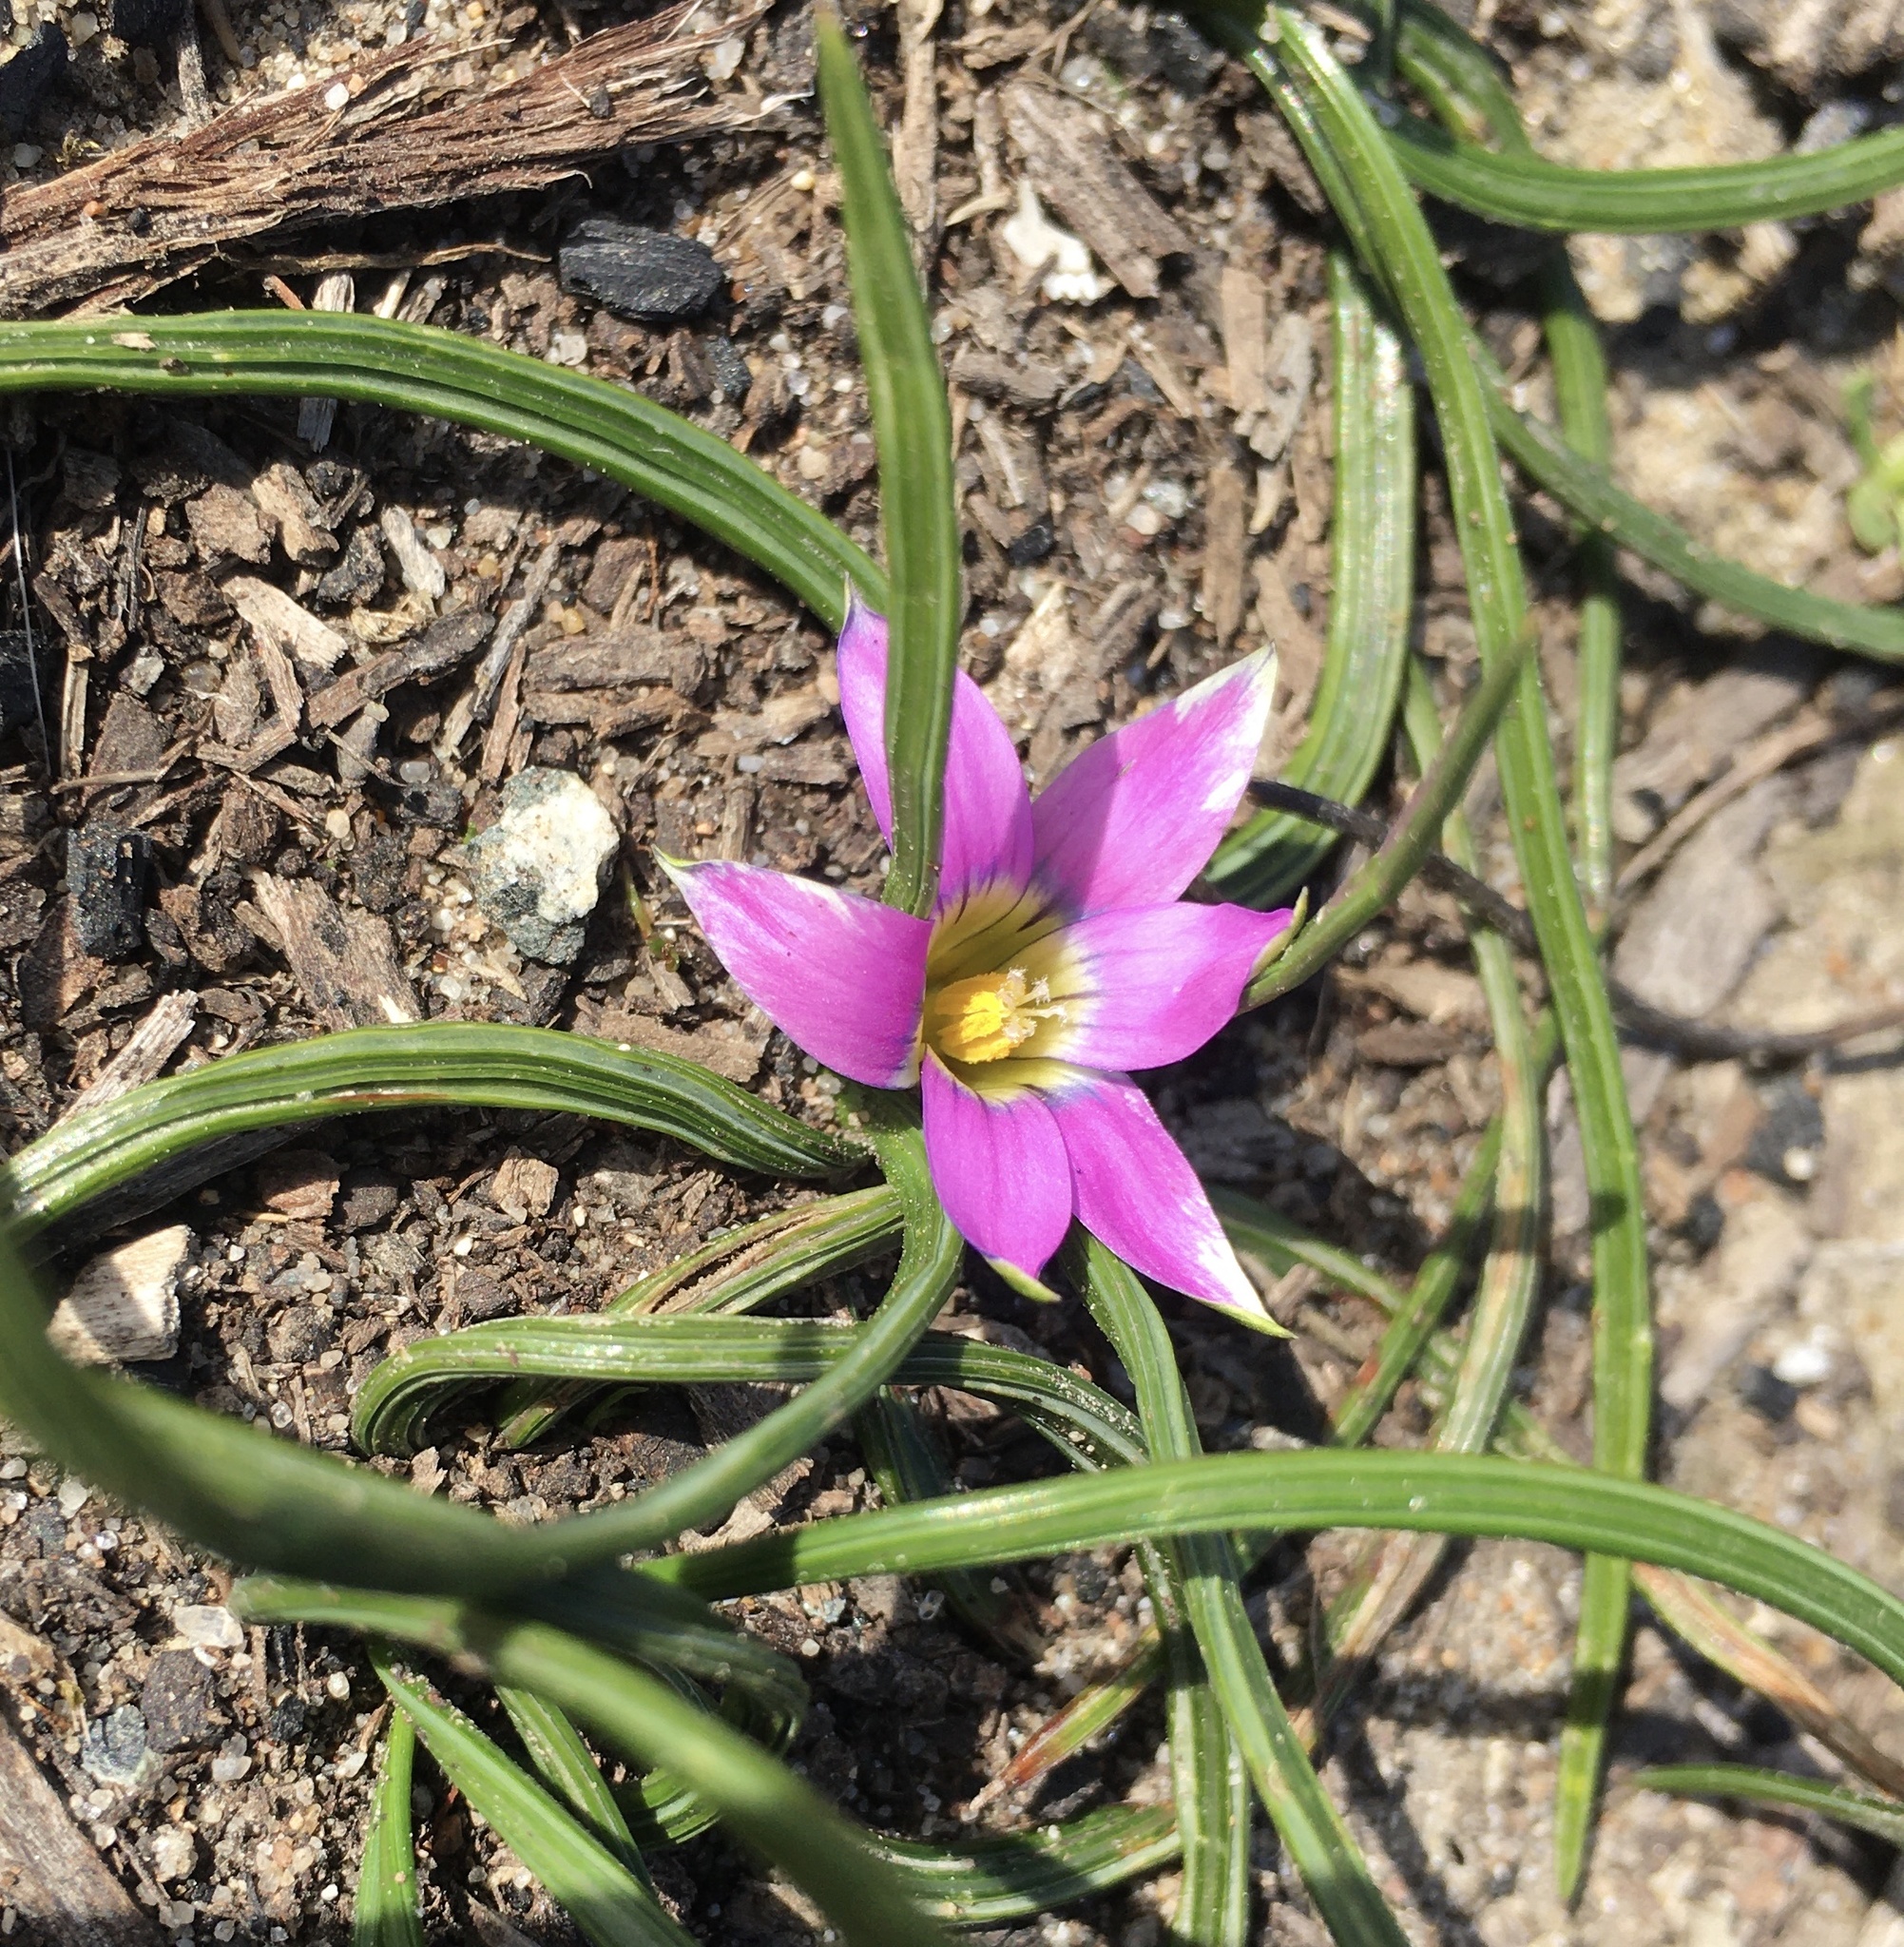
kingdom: Plantae
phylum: Tracheophyta
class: Liliopsida
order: Asparagales
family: Iridaceae
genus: Romulea
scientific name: Romulea rosea
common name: Oniongrass
